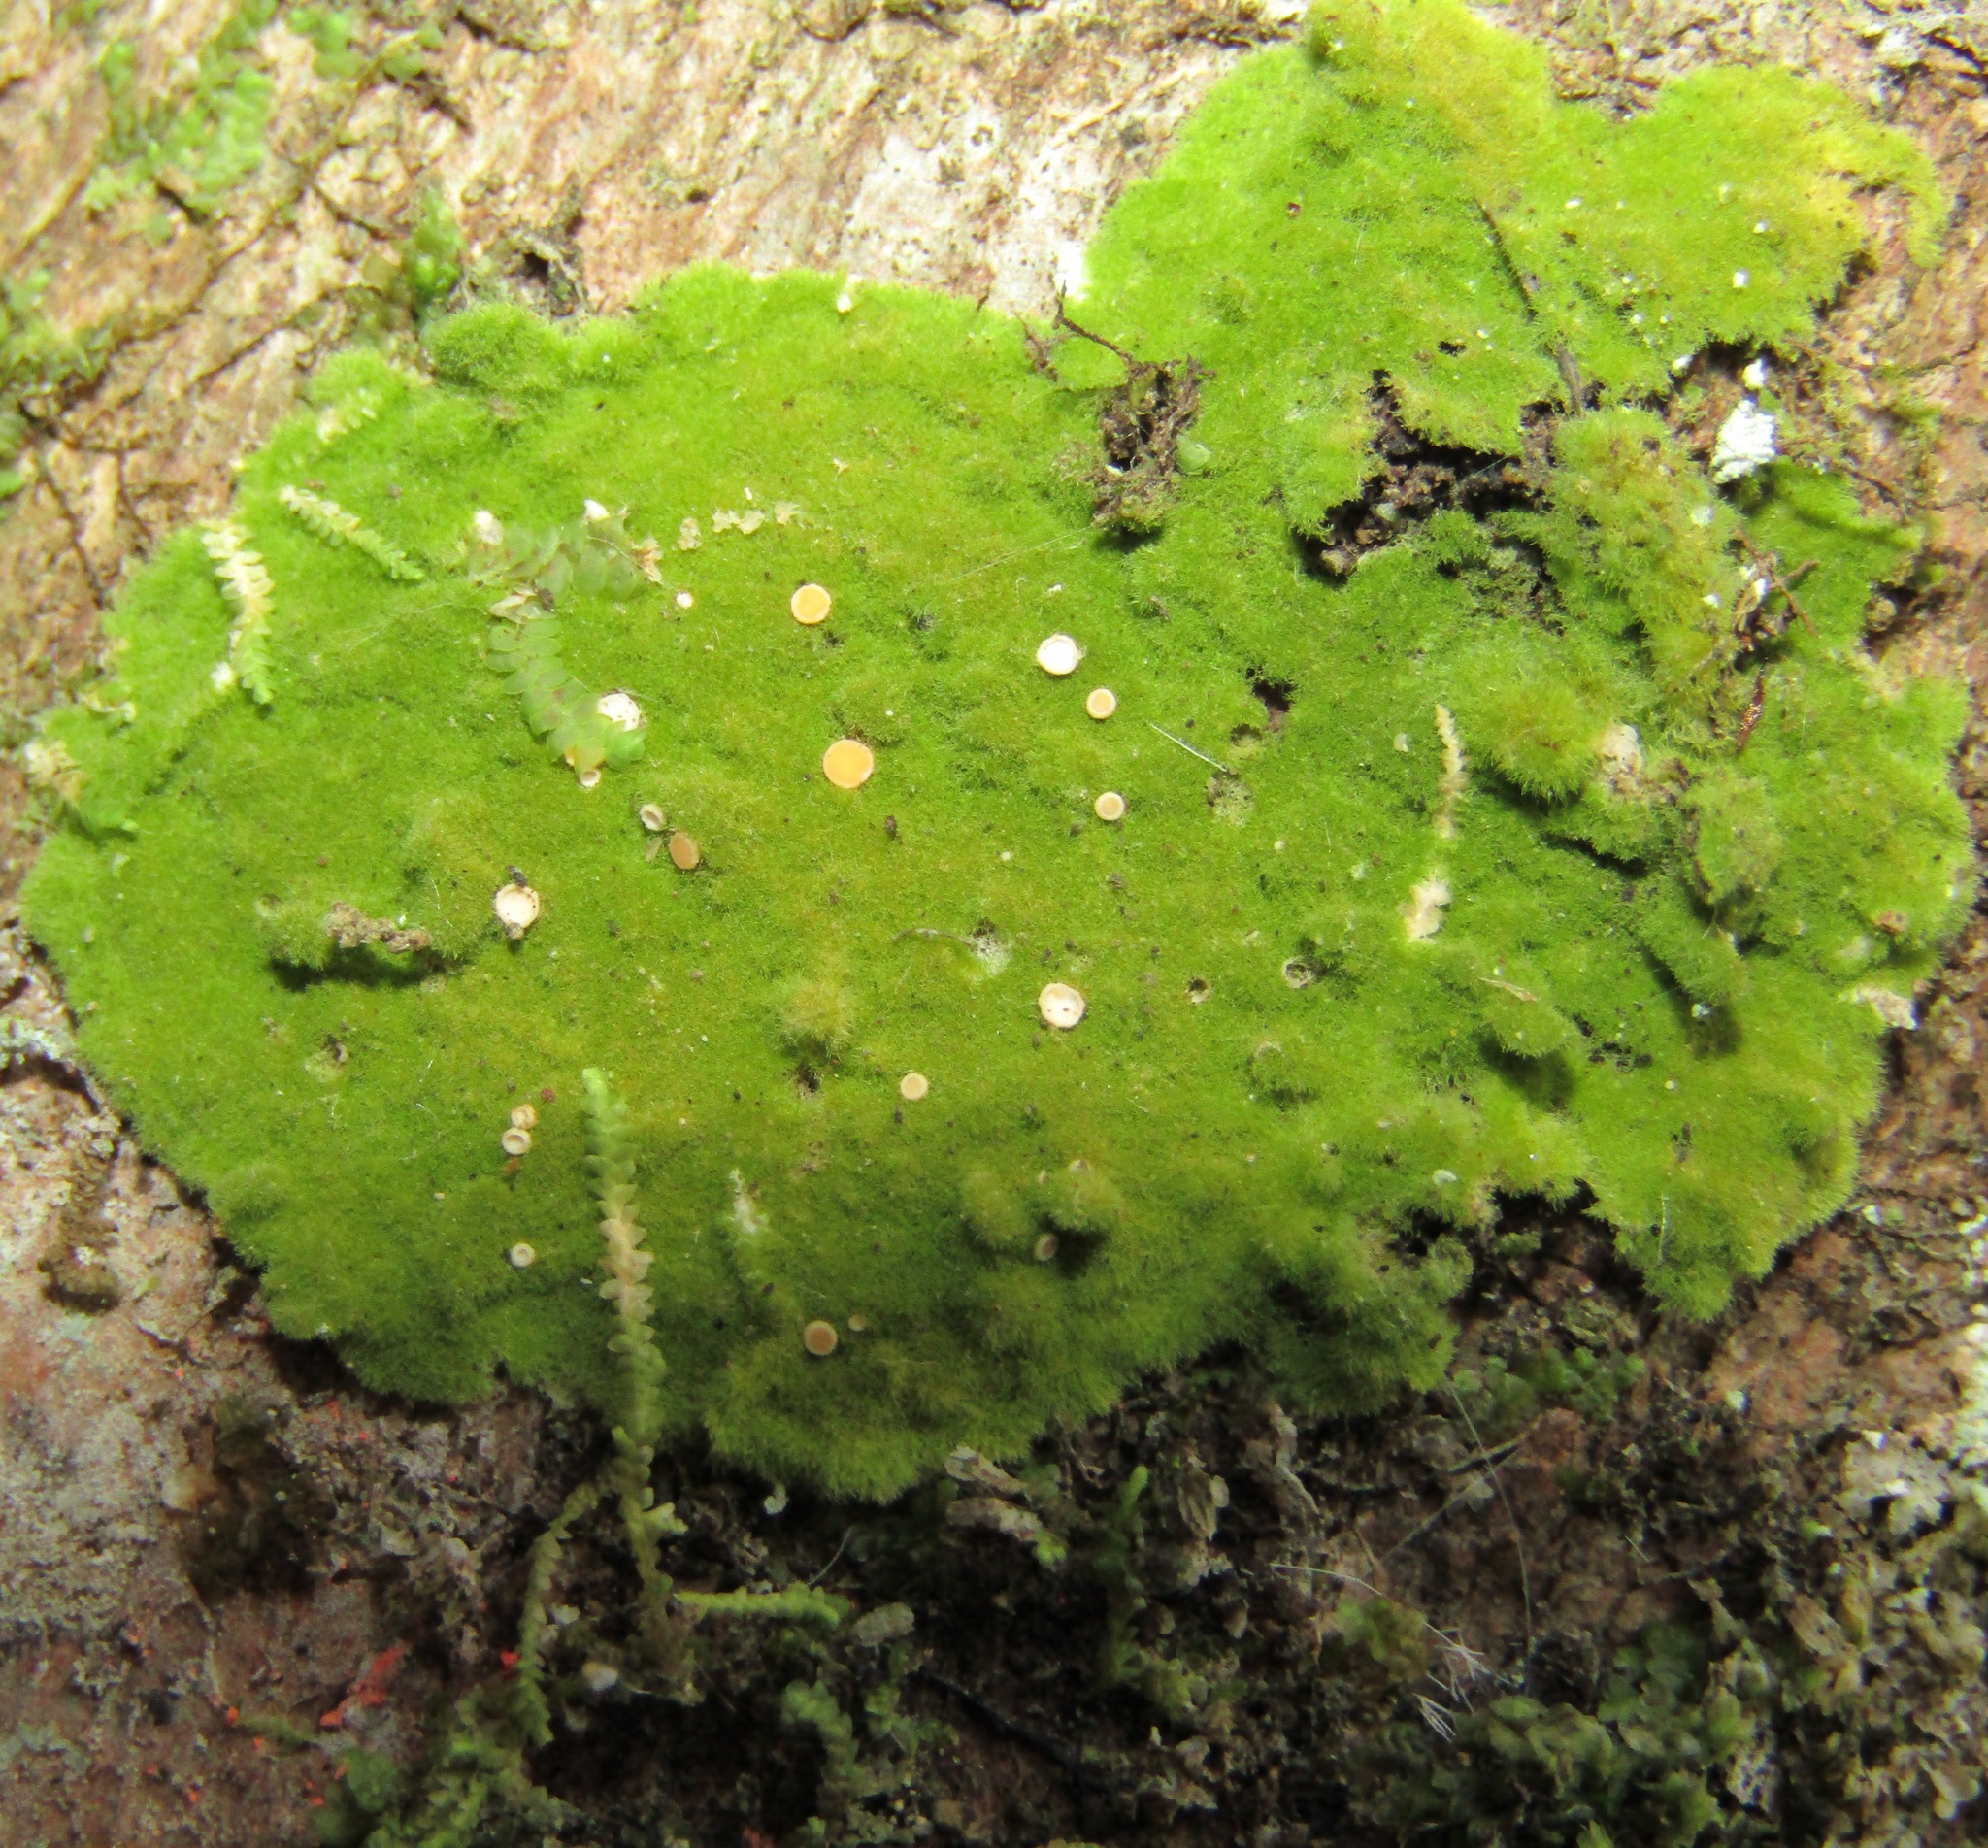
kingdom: Fungi
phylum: Ascomycota
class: Lecanoromycetes
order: Ostropales
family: Coenogoniaceae
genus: Coenogonium
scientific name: Coenogonium implexum
